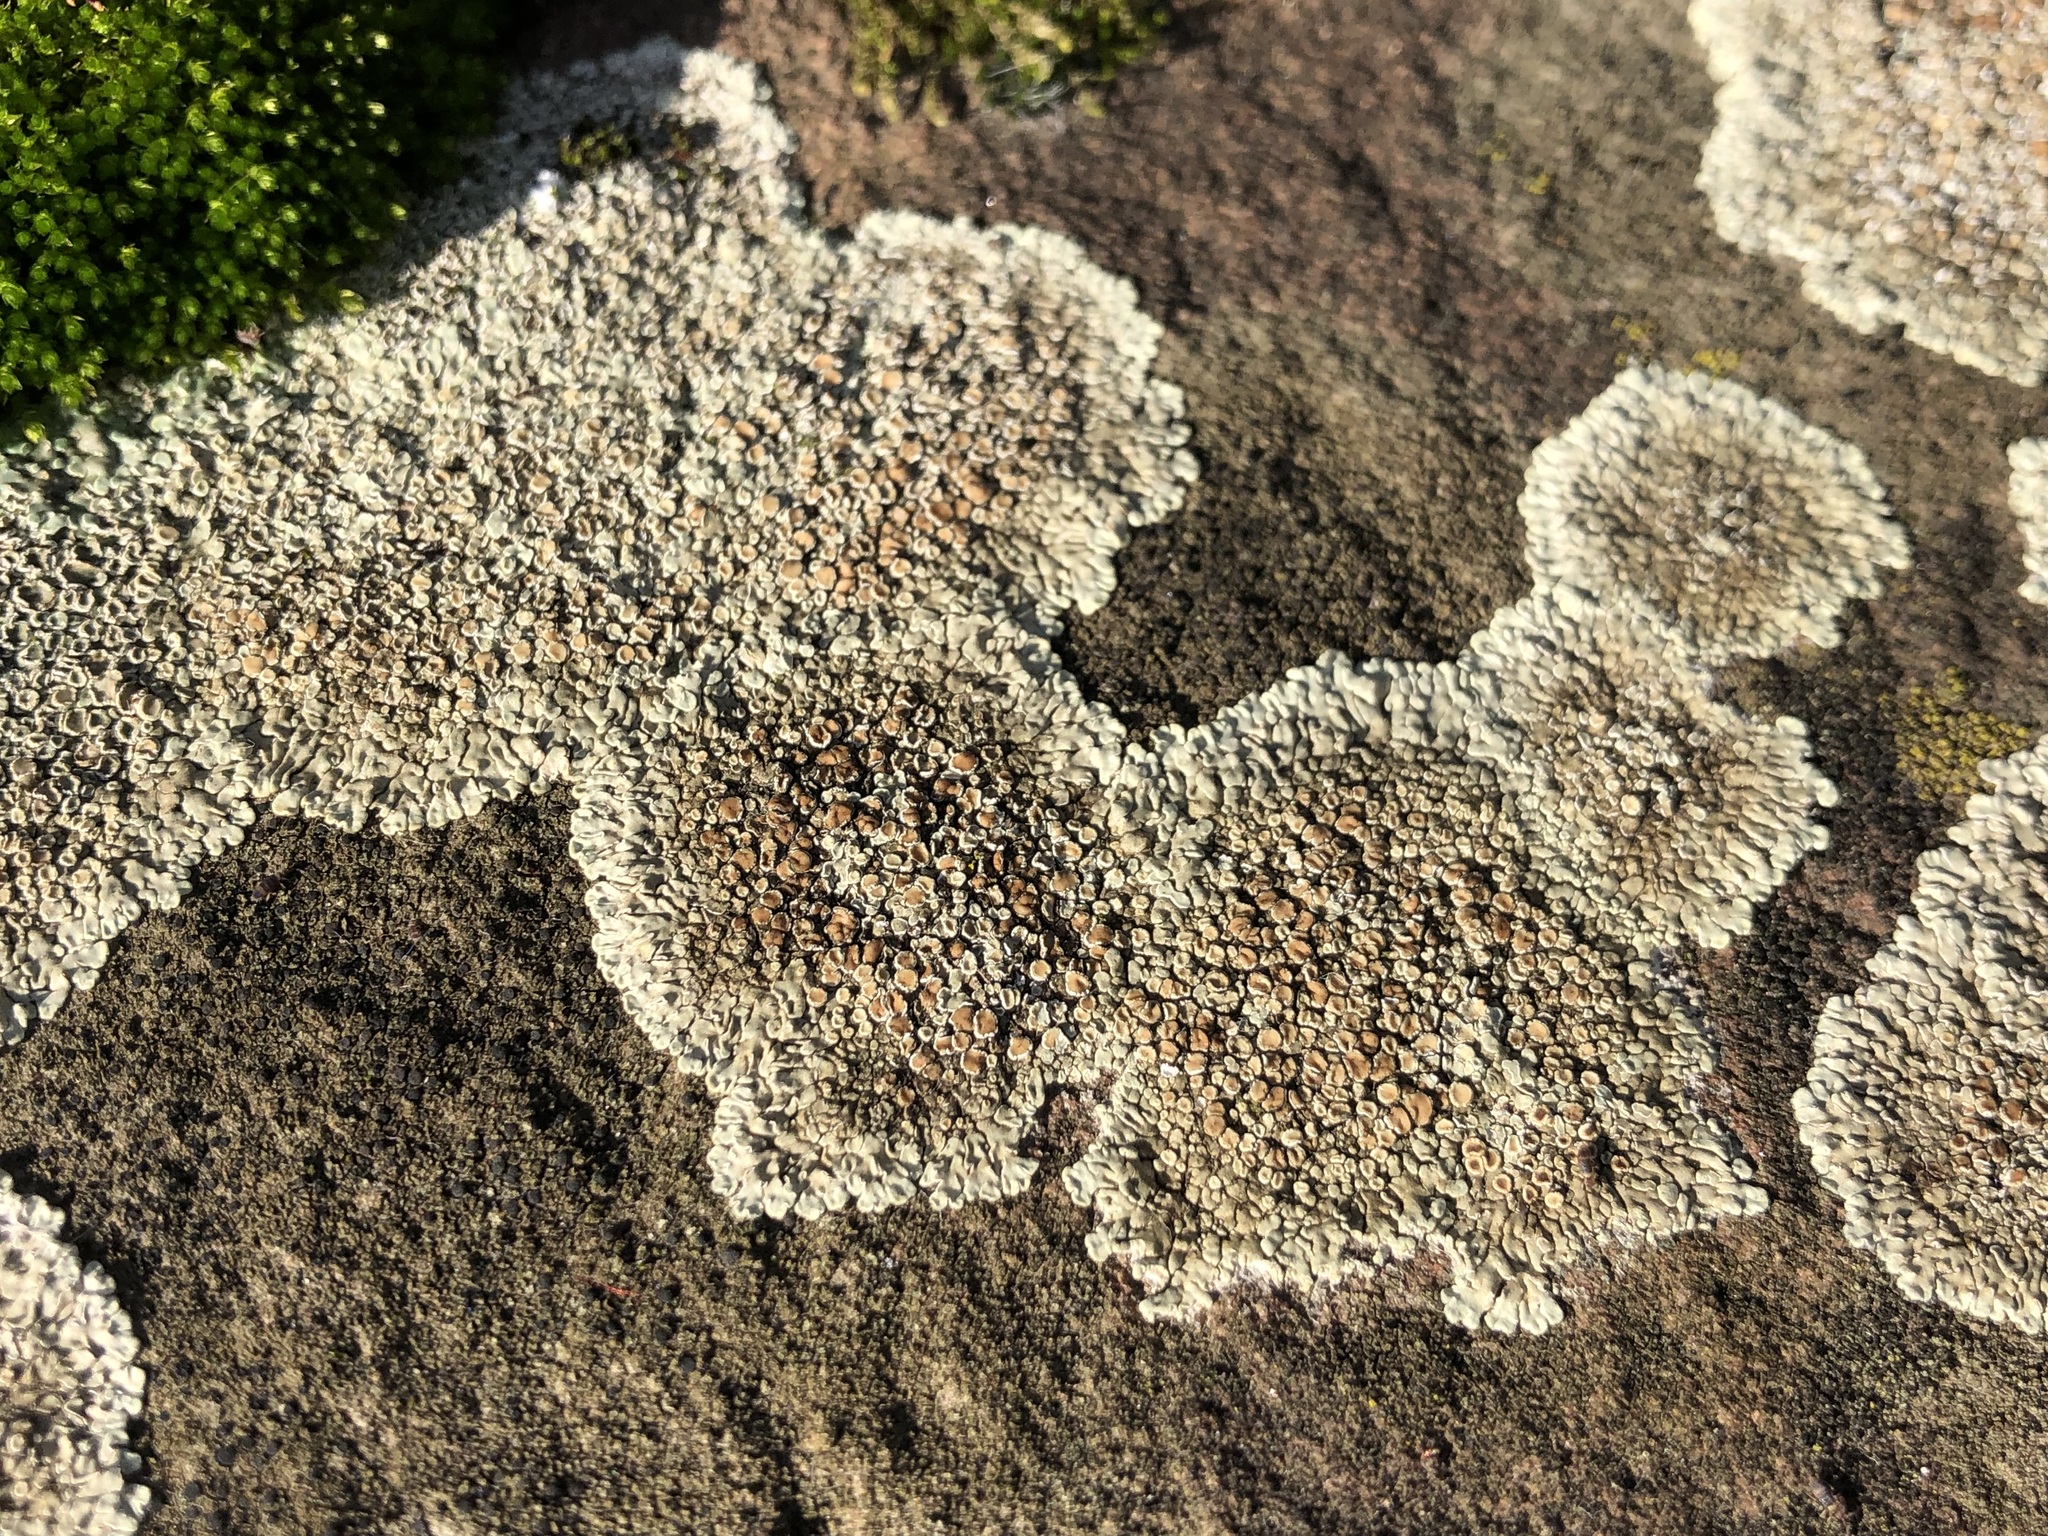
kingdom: Fungi
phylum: Ascomycota
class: Lecanoromycetes
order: Lecanorales
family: Lecanoraceae
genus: Protoparmeliopsis
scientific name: Protoparmeliopsis muralis
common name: Stonewall rim lichen
